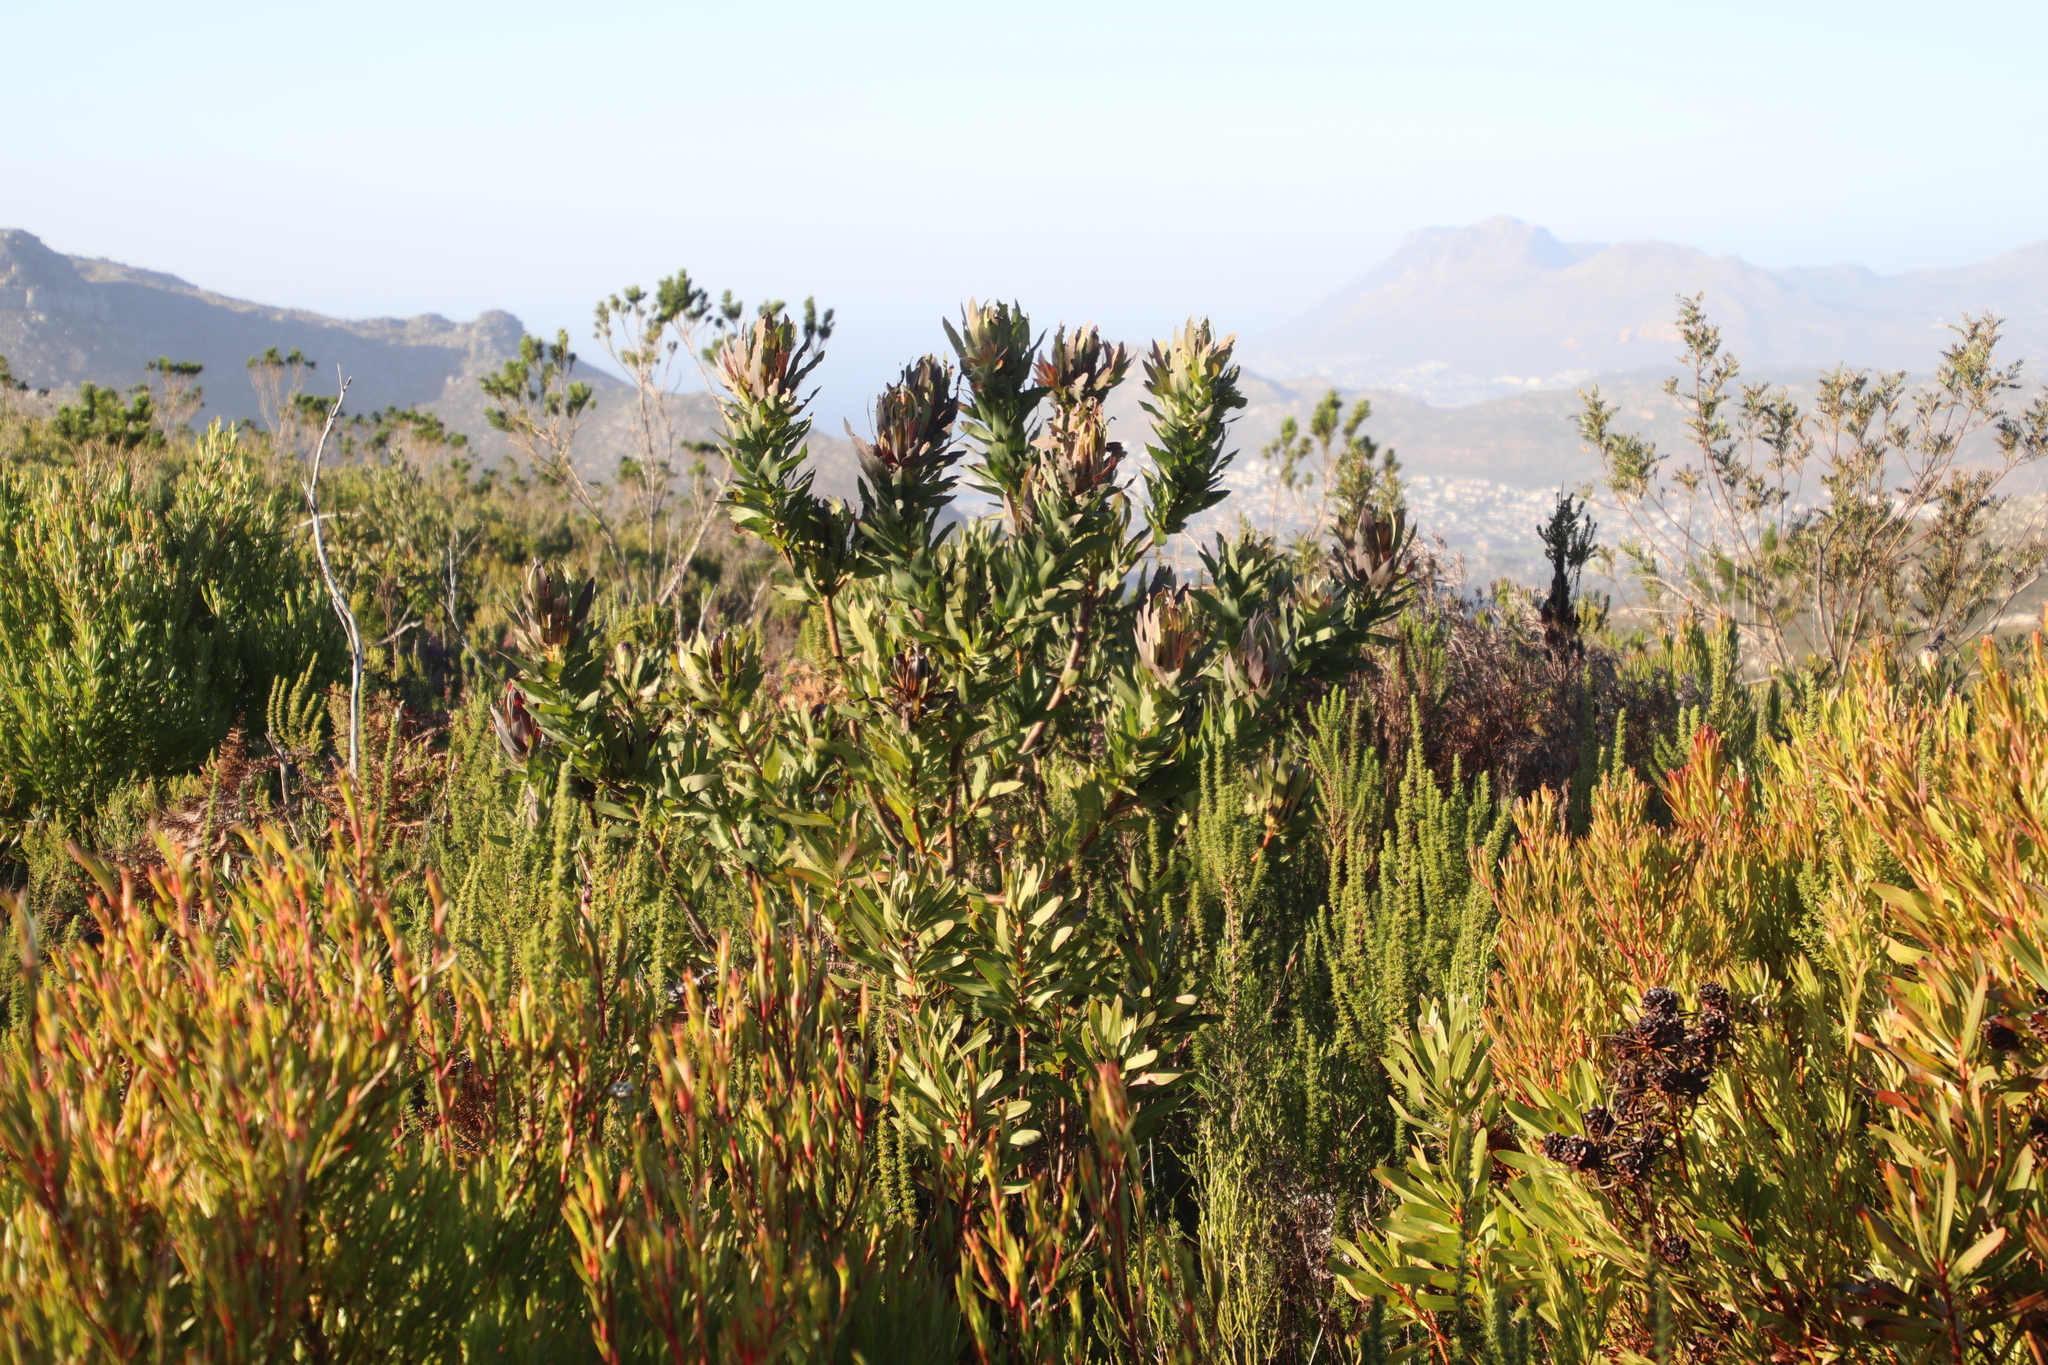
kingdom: Plantae
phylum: Tracheophyta
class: Magnoliopsida
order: Proteales
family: Proteaceae
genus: Protea
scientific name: Protea coronata
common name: Green sugarbush
